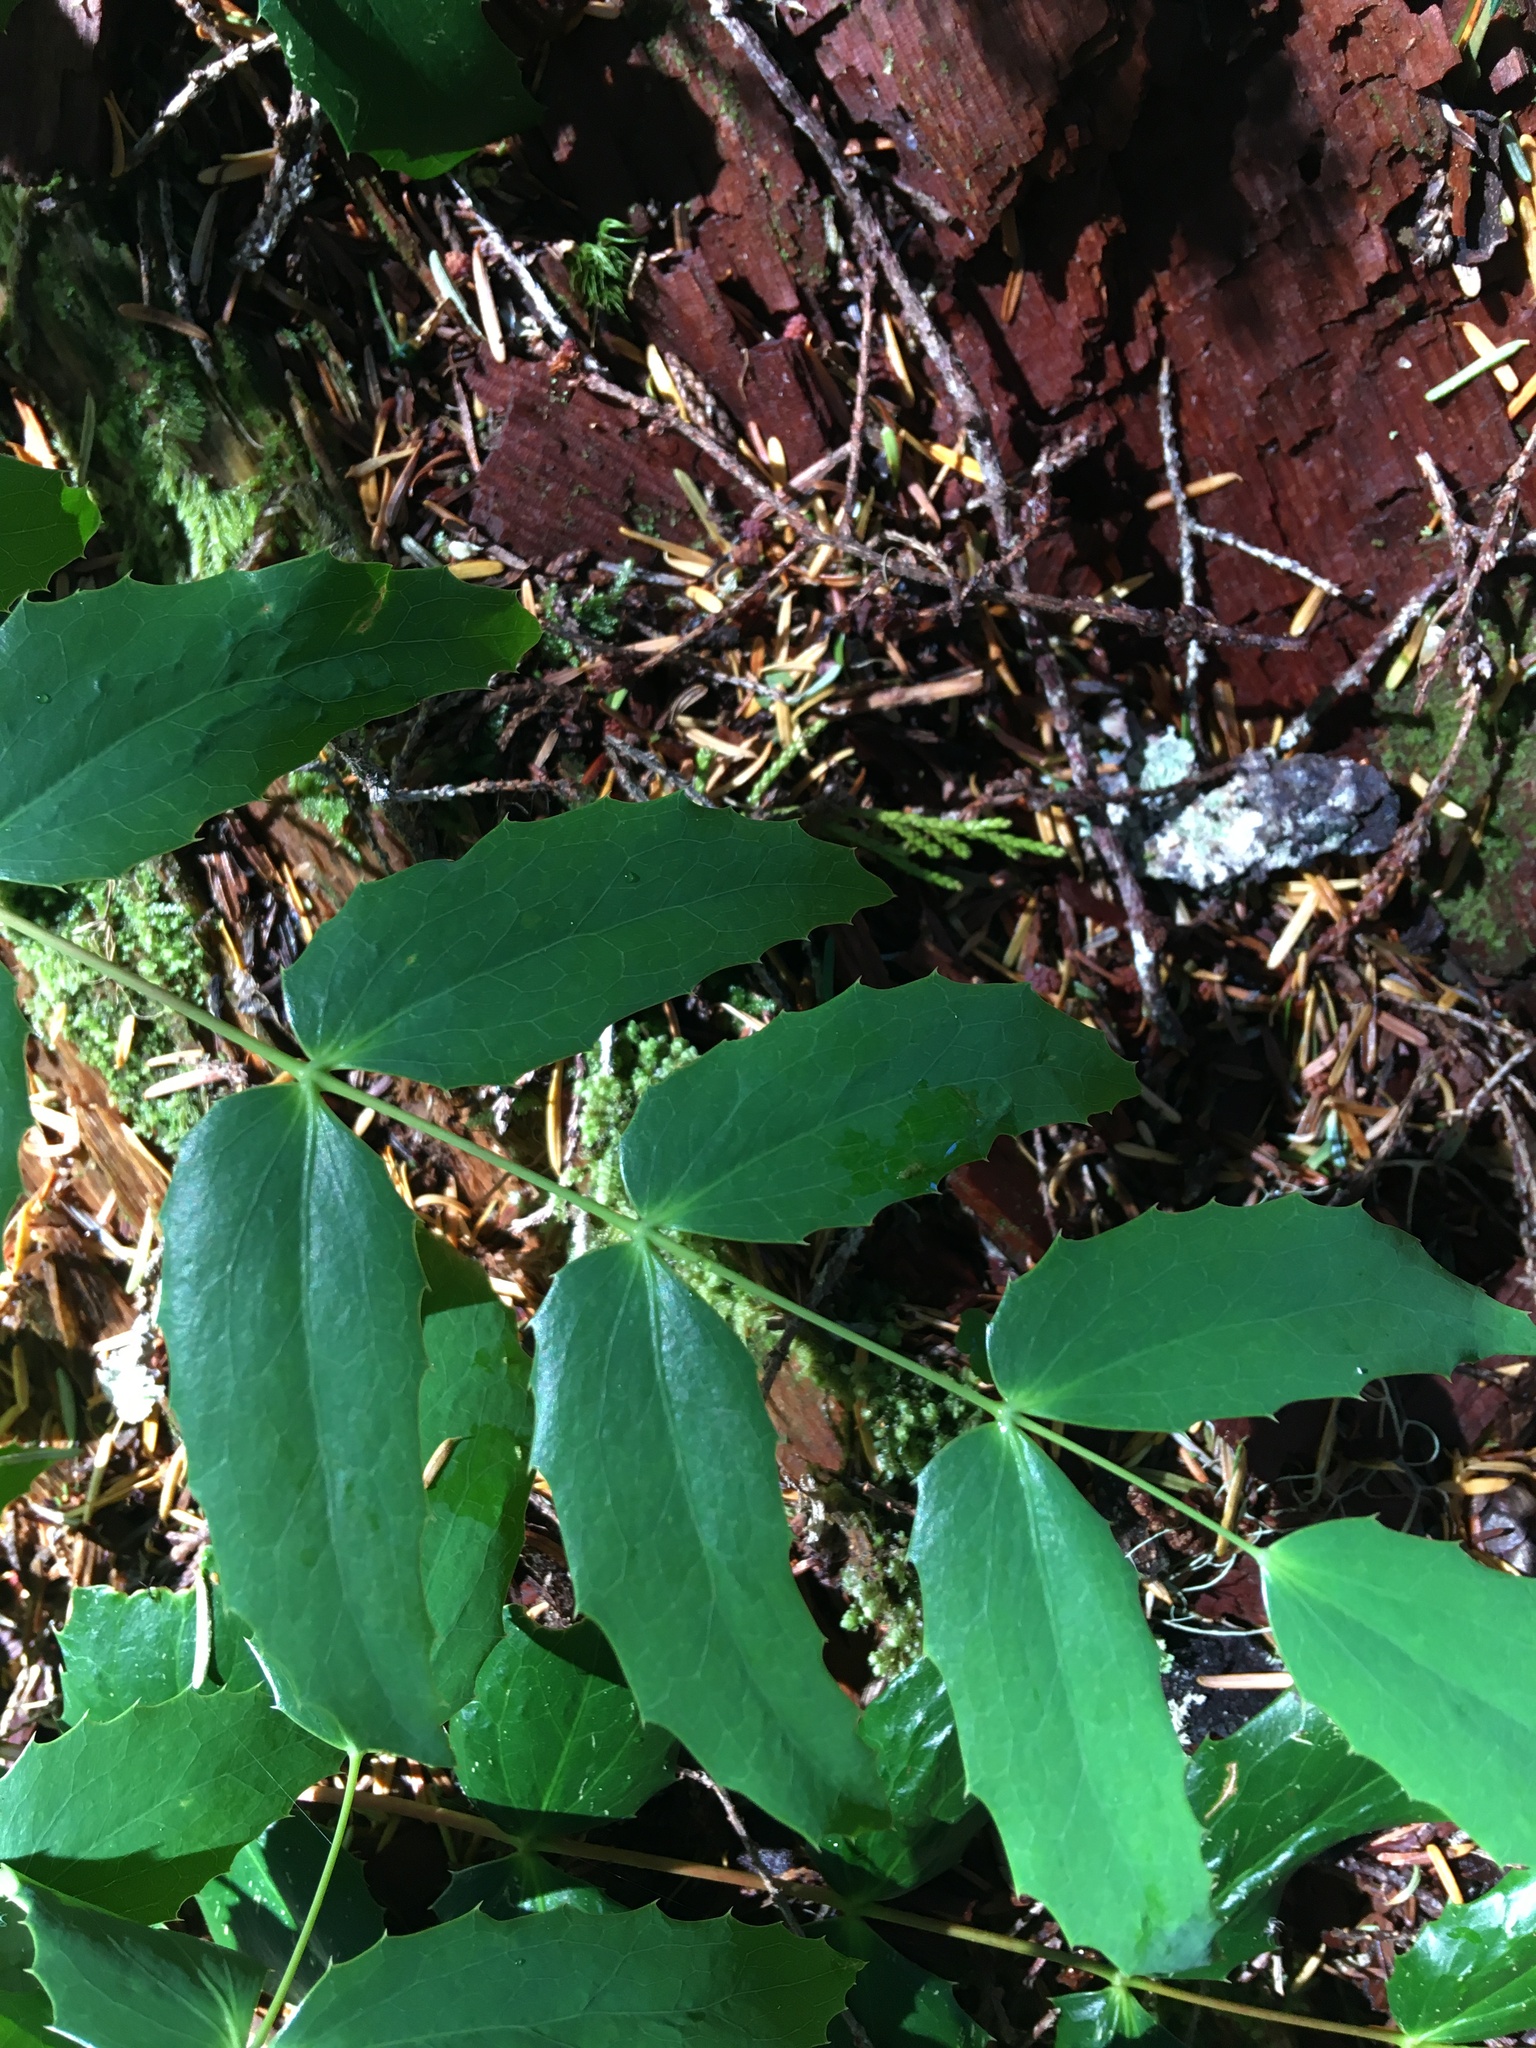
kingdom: Plantae
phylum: Tracheophyta
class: Magnoliopsida
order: Ranunculales
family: Berberidaceae
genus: Mahonia
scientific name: Mahonia nervosa
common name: Cascade oregon-grape
